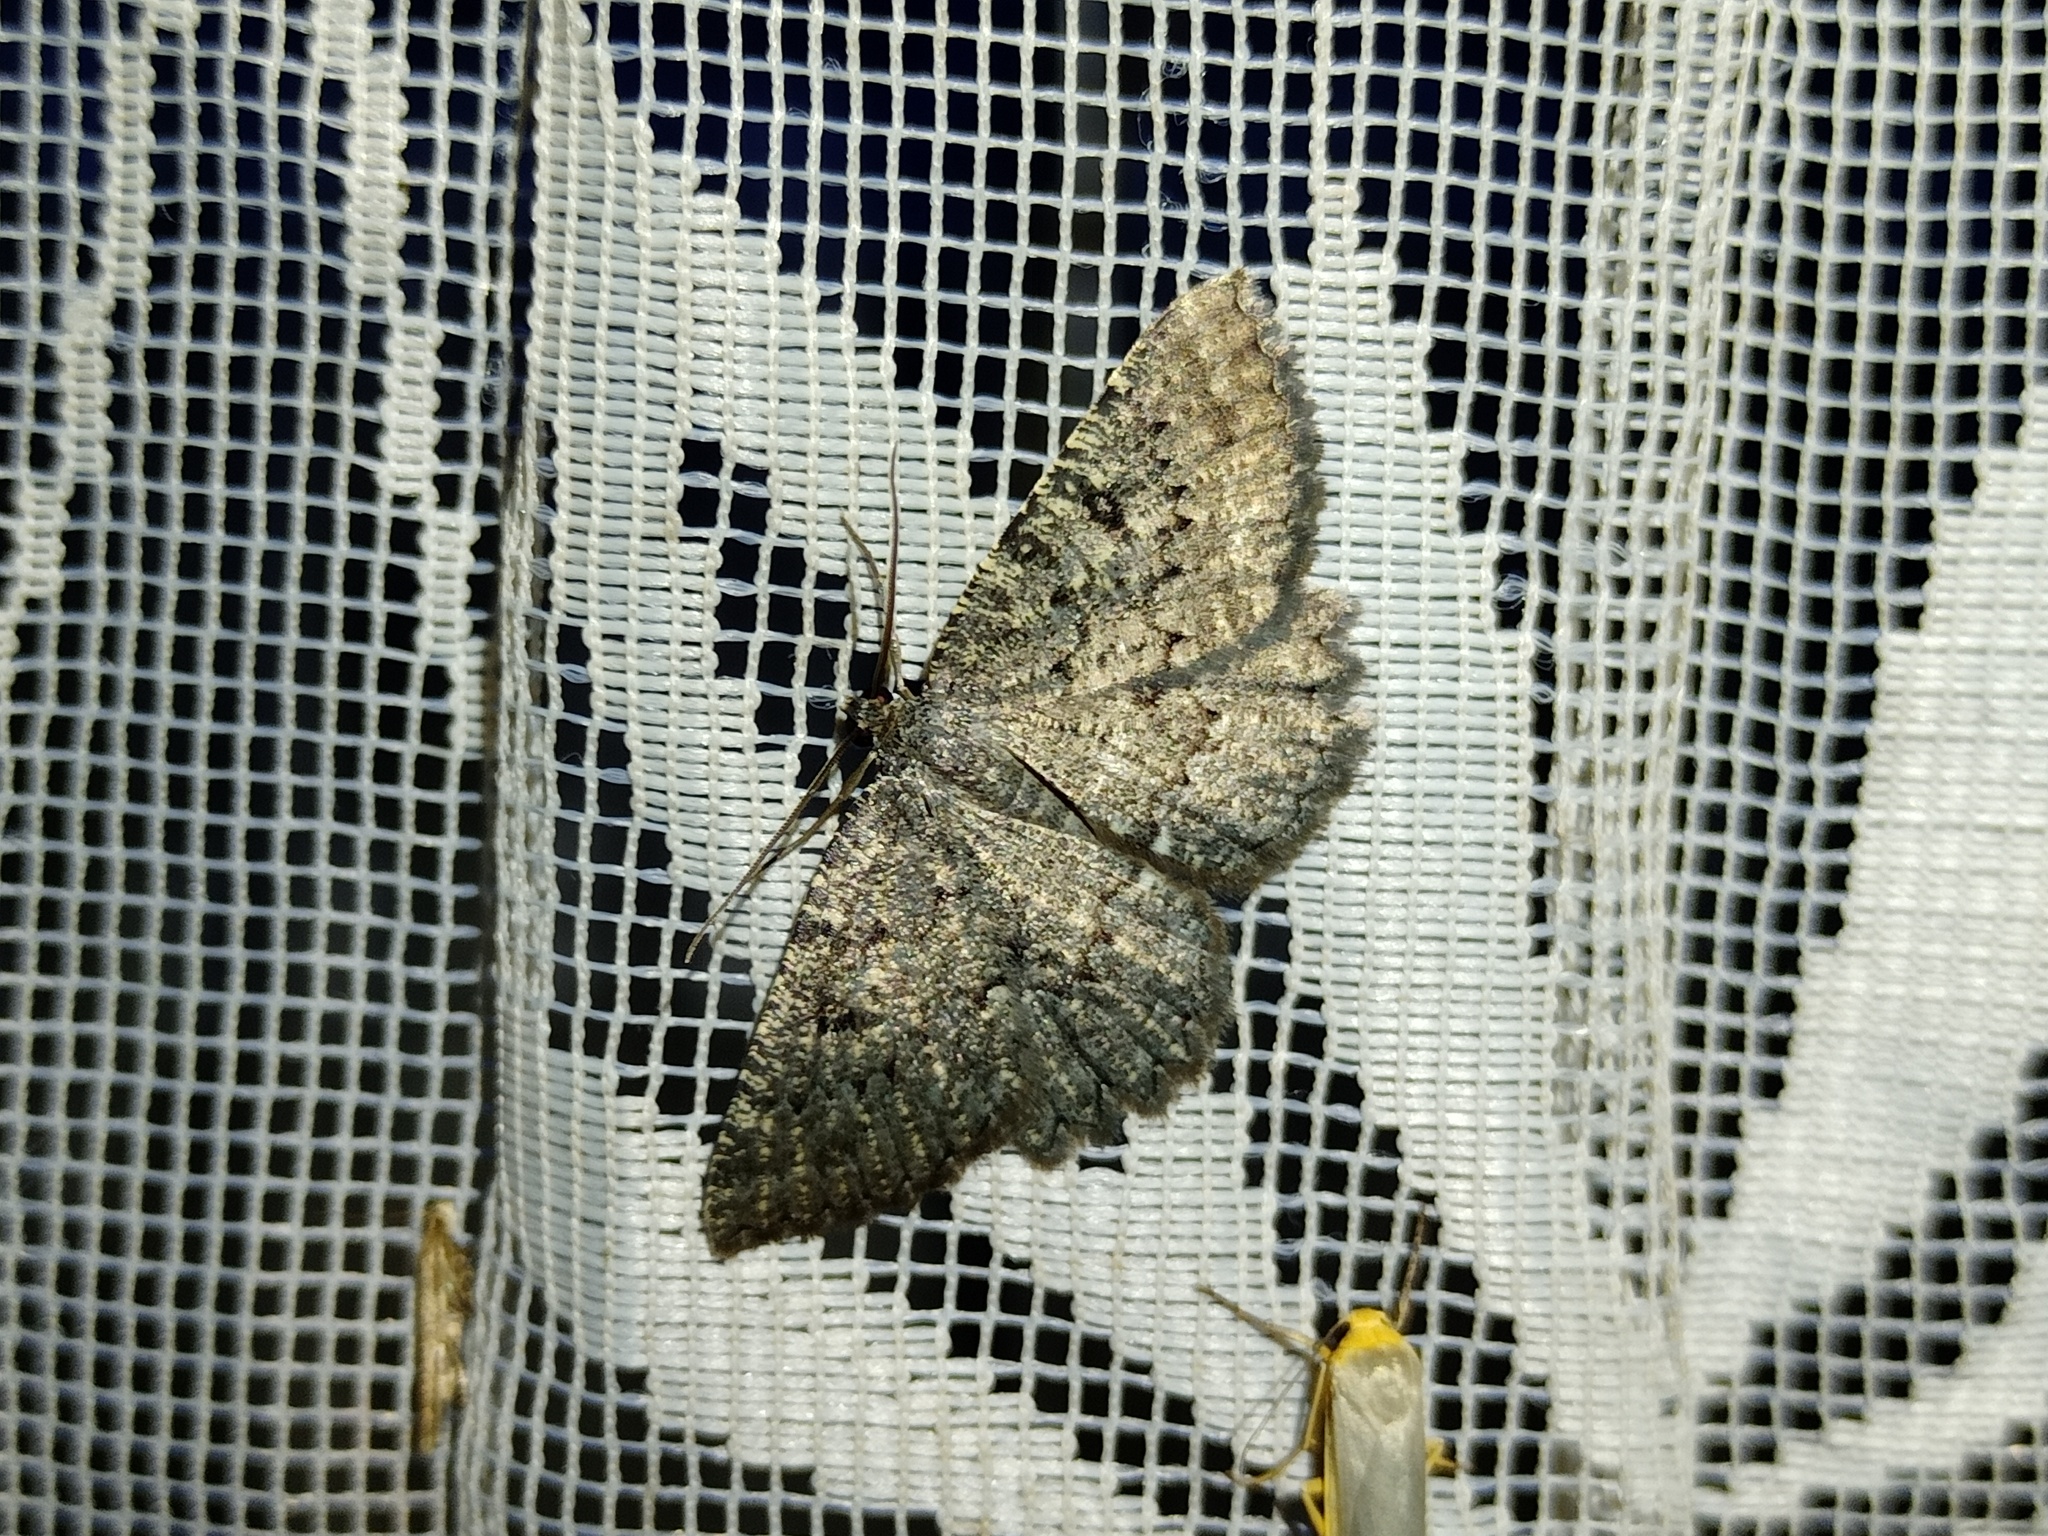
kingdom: Animalia
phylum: Arthropoda
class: Insecta
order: Lepidoptera
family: Geometridae
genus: Charissa
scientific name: Charissa obscurata
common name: Annulet
